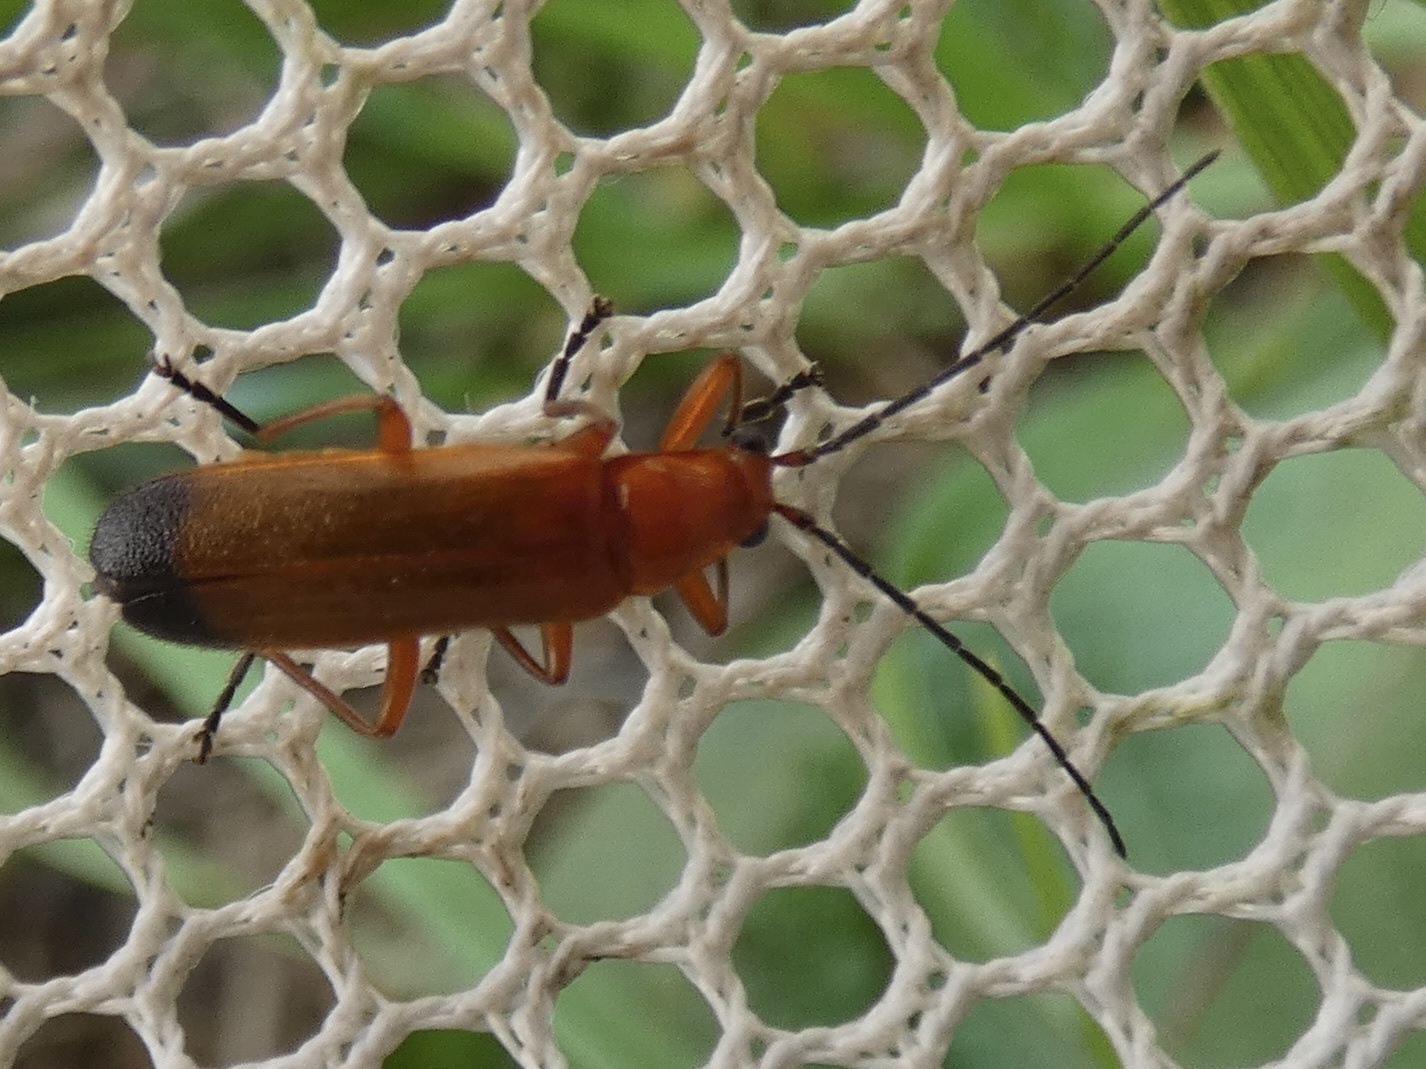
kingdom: Animalia
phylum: Arthropoda
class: Insecta
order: Coleoptera
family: Cantharidae
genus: Rhagonycha
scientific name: Rhagonycha fulva
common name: Common red soldier beetle
